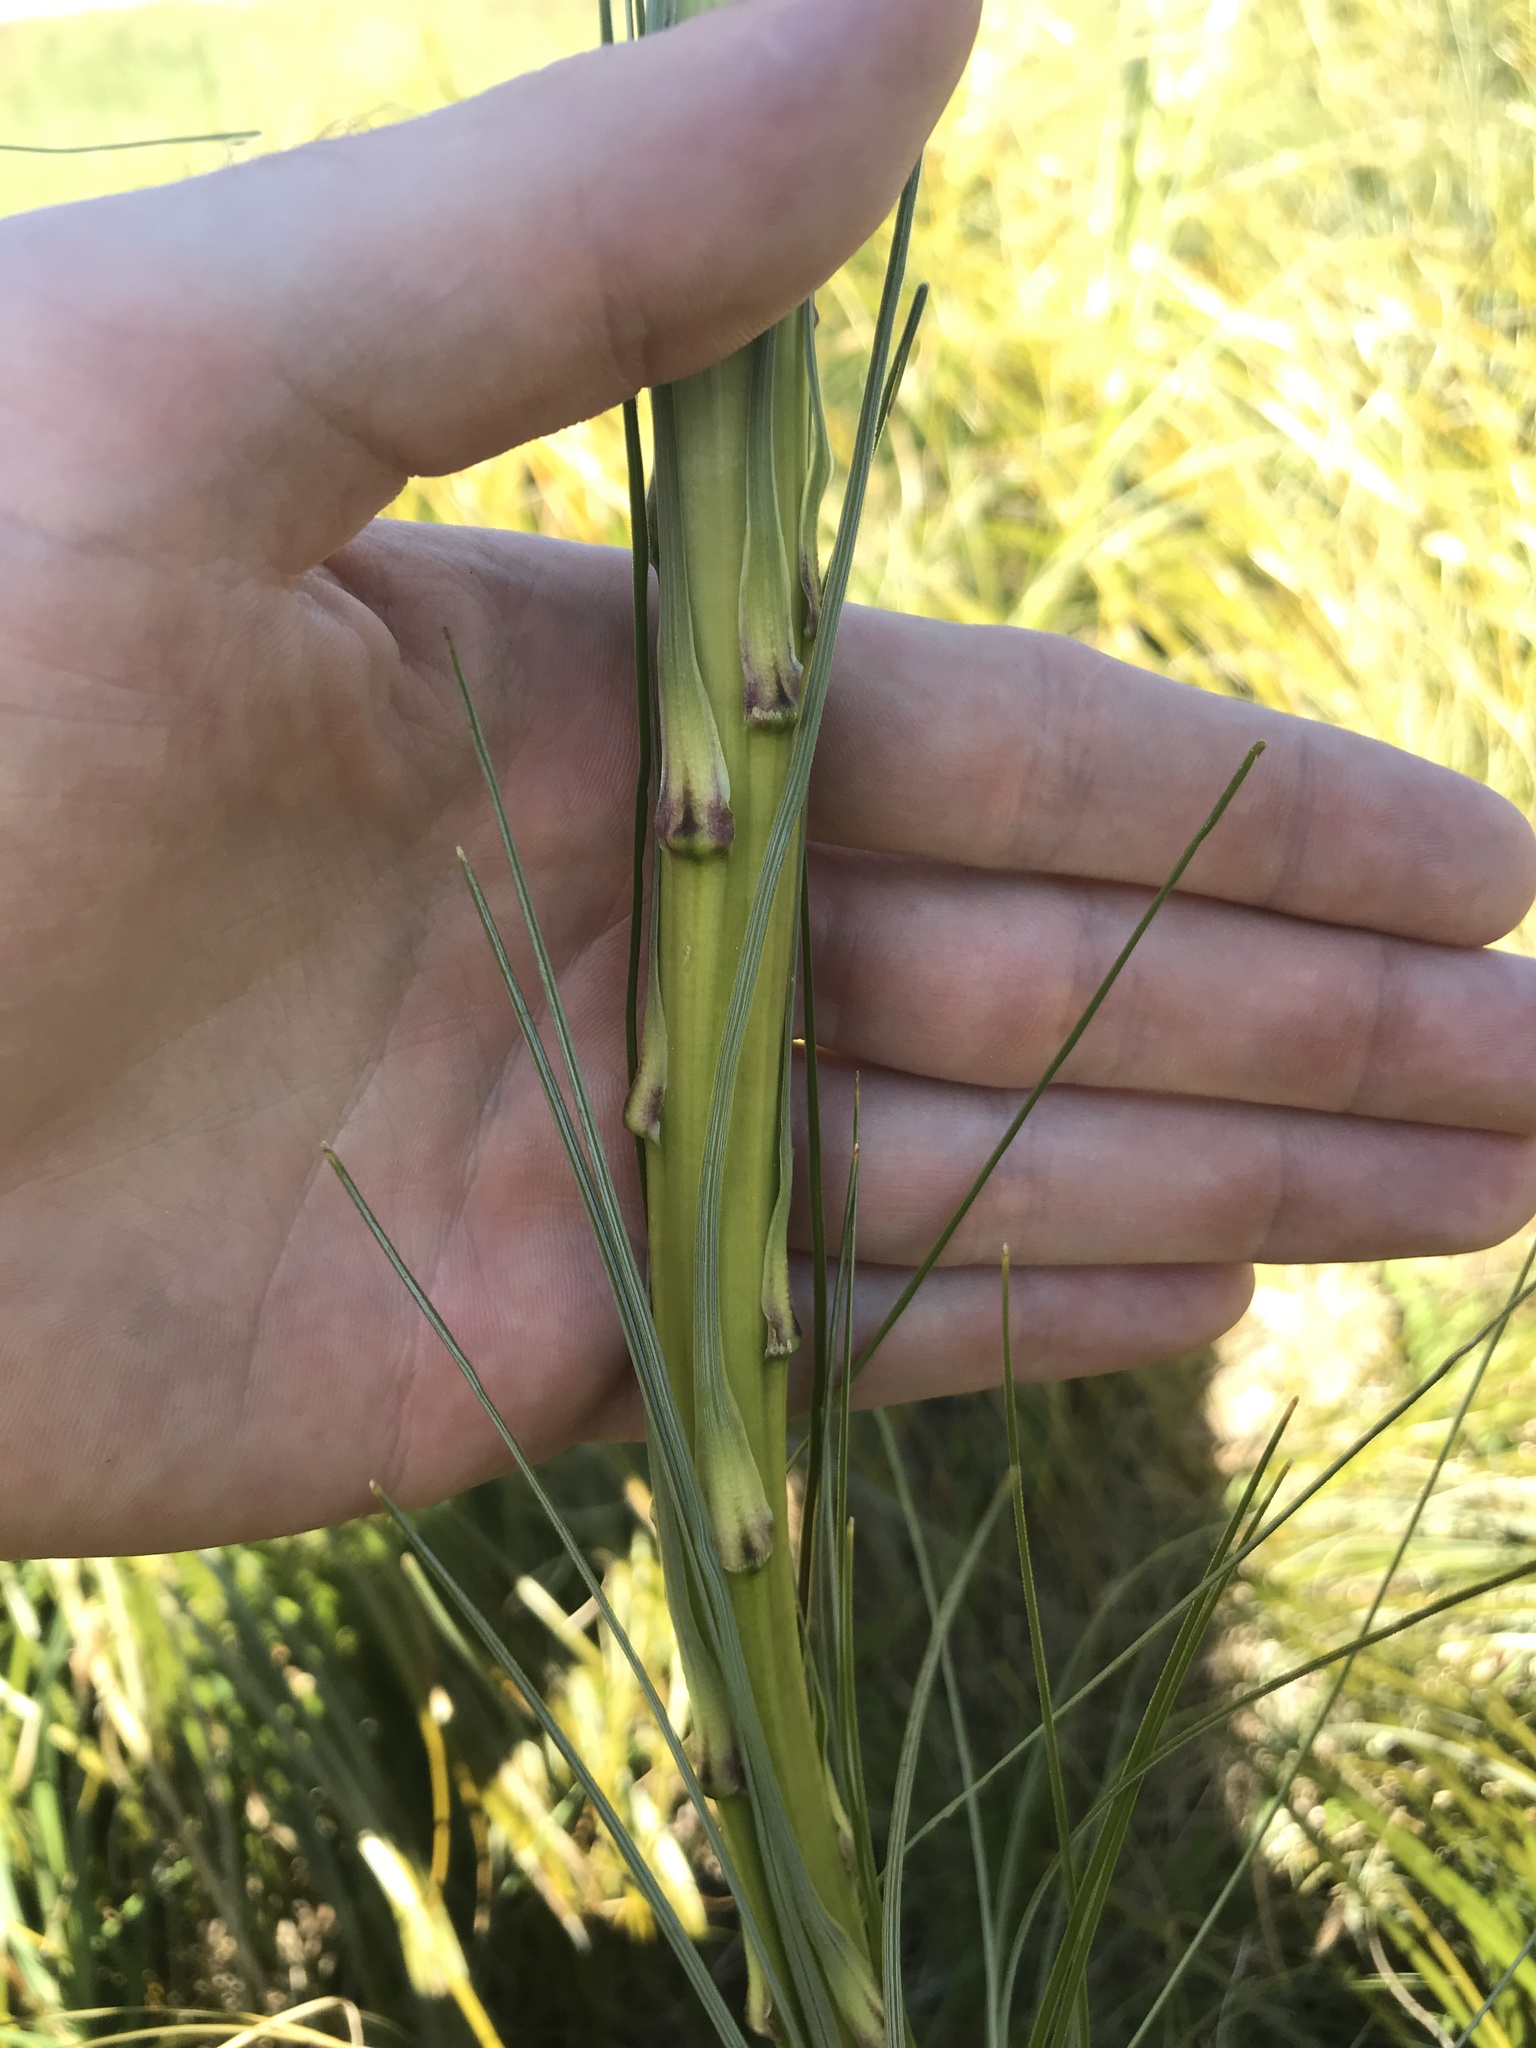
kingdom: Plantae
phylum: Tracheophyta
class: Liliopsida
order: Liliales
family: Melanthiaceae
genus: Xerophyllum
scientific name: Xerophyllum tenax
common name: Bear-grass
